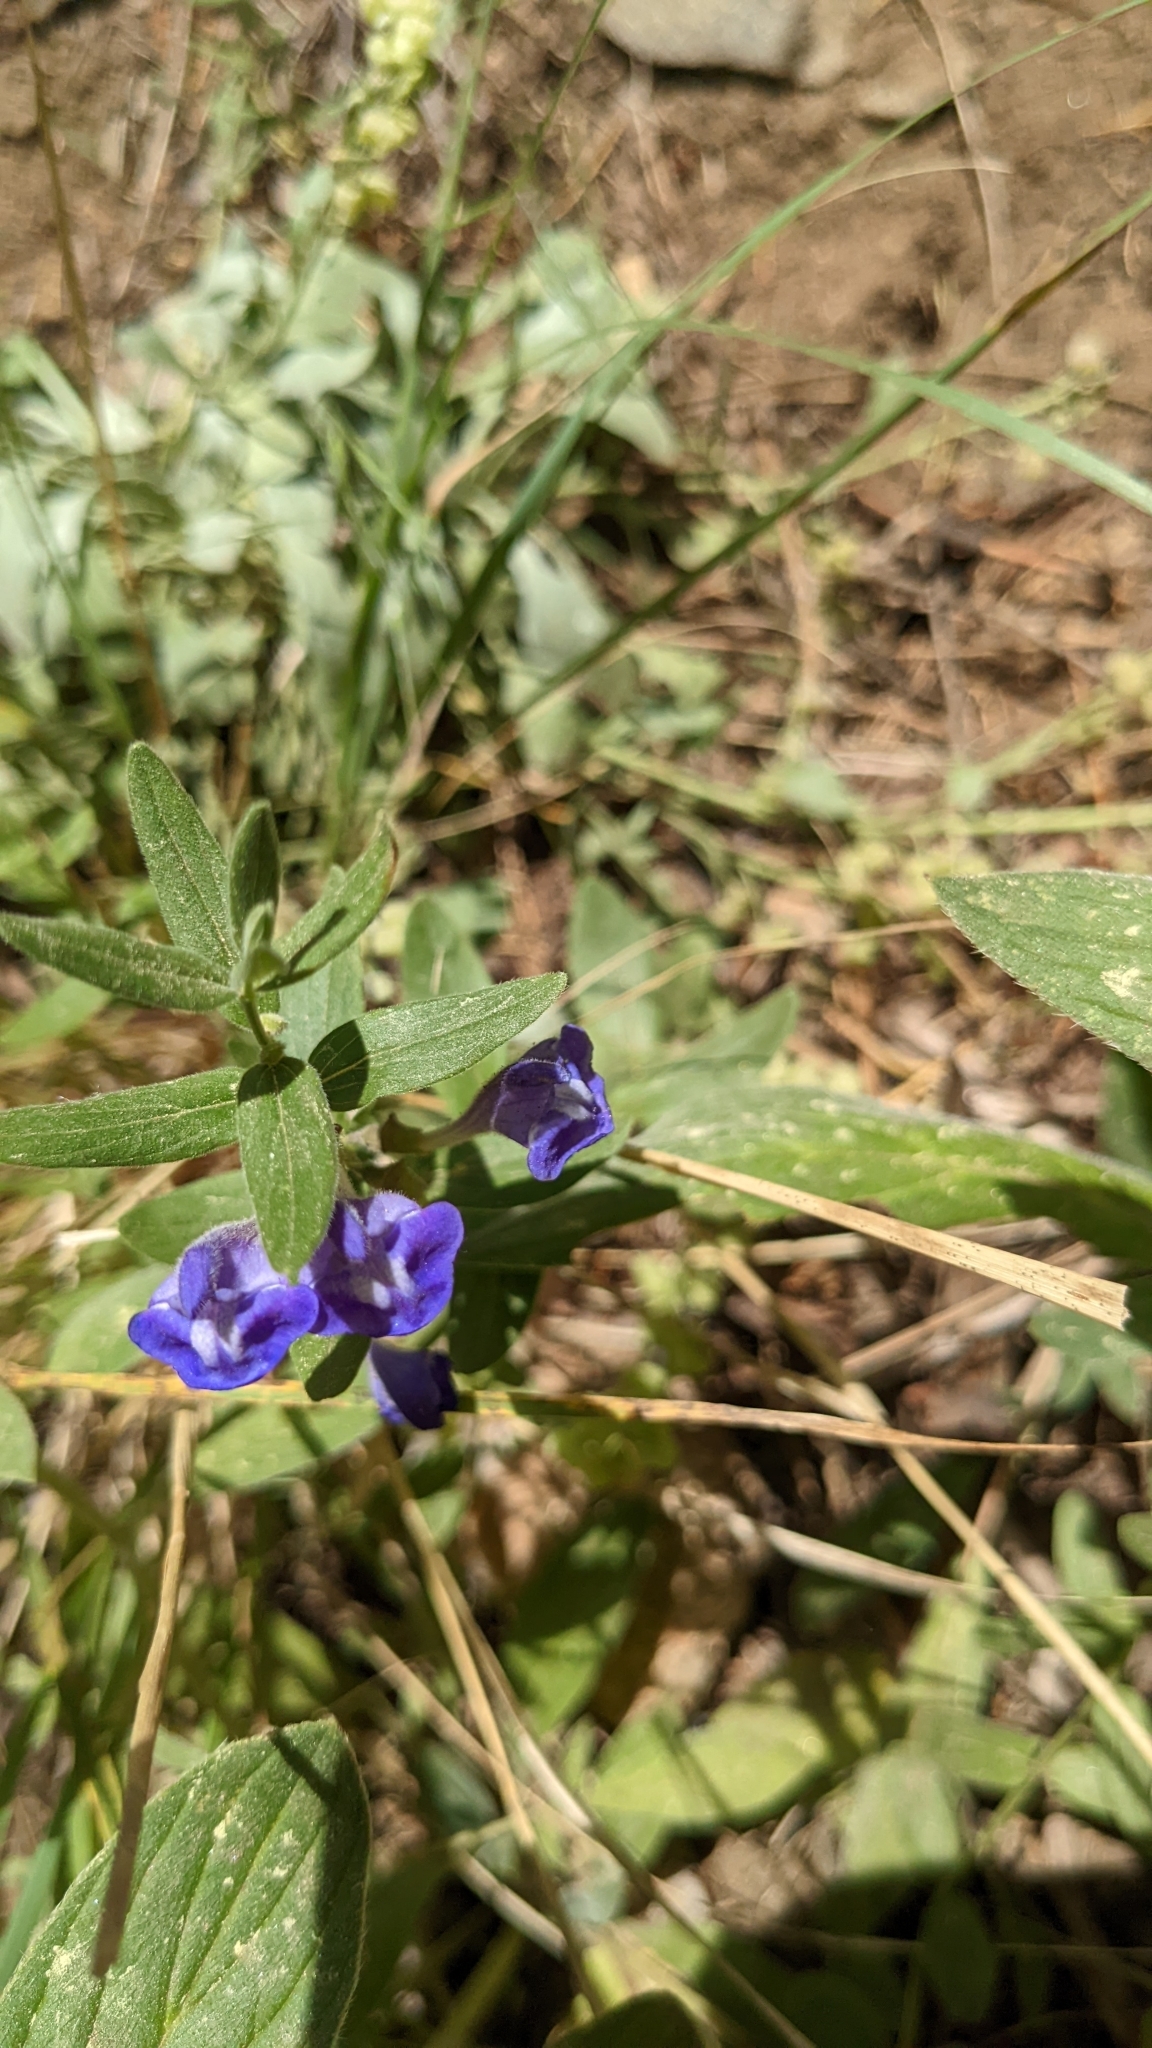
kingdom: Plantae
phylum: Tracheophyta
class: Magnoliopsida
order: Lamiales
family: Lamiaceae
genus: Scutellaria
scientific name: Scutellaria brittonii
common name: Britton's skullcap
